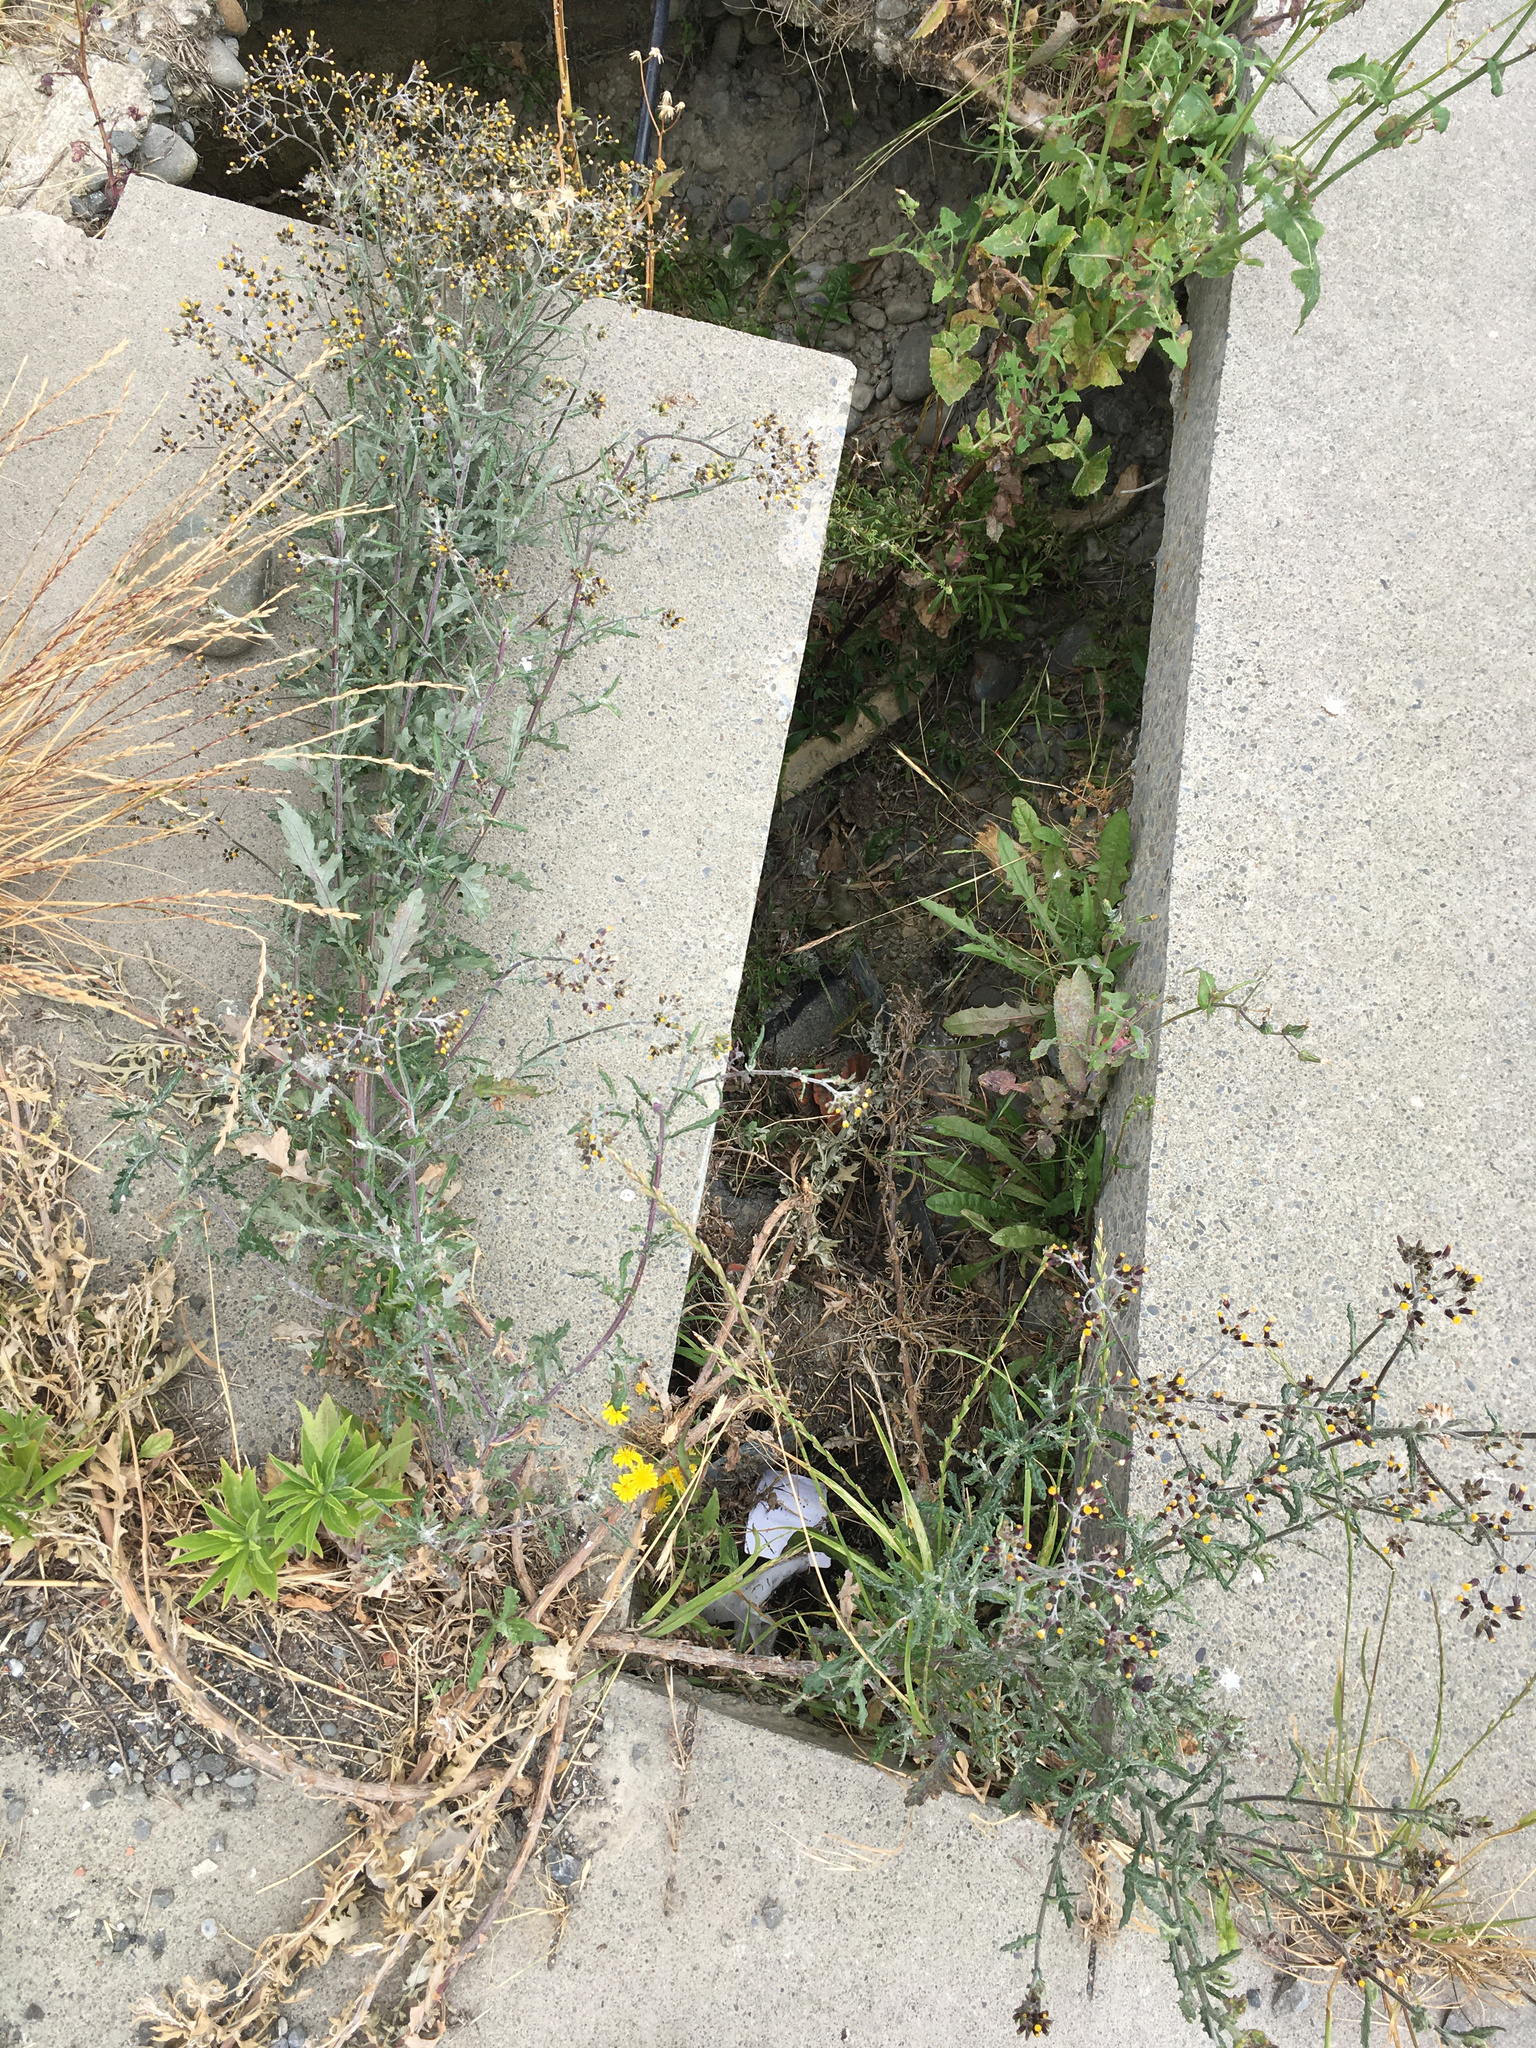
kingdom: Plantae
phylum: Tracheophyta
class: Magnoliopsida
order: Asterales
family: Asteraceae
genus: Senecio
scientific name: Senecio glomeratus
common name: Cutleaf burnweed
